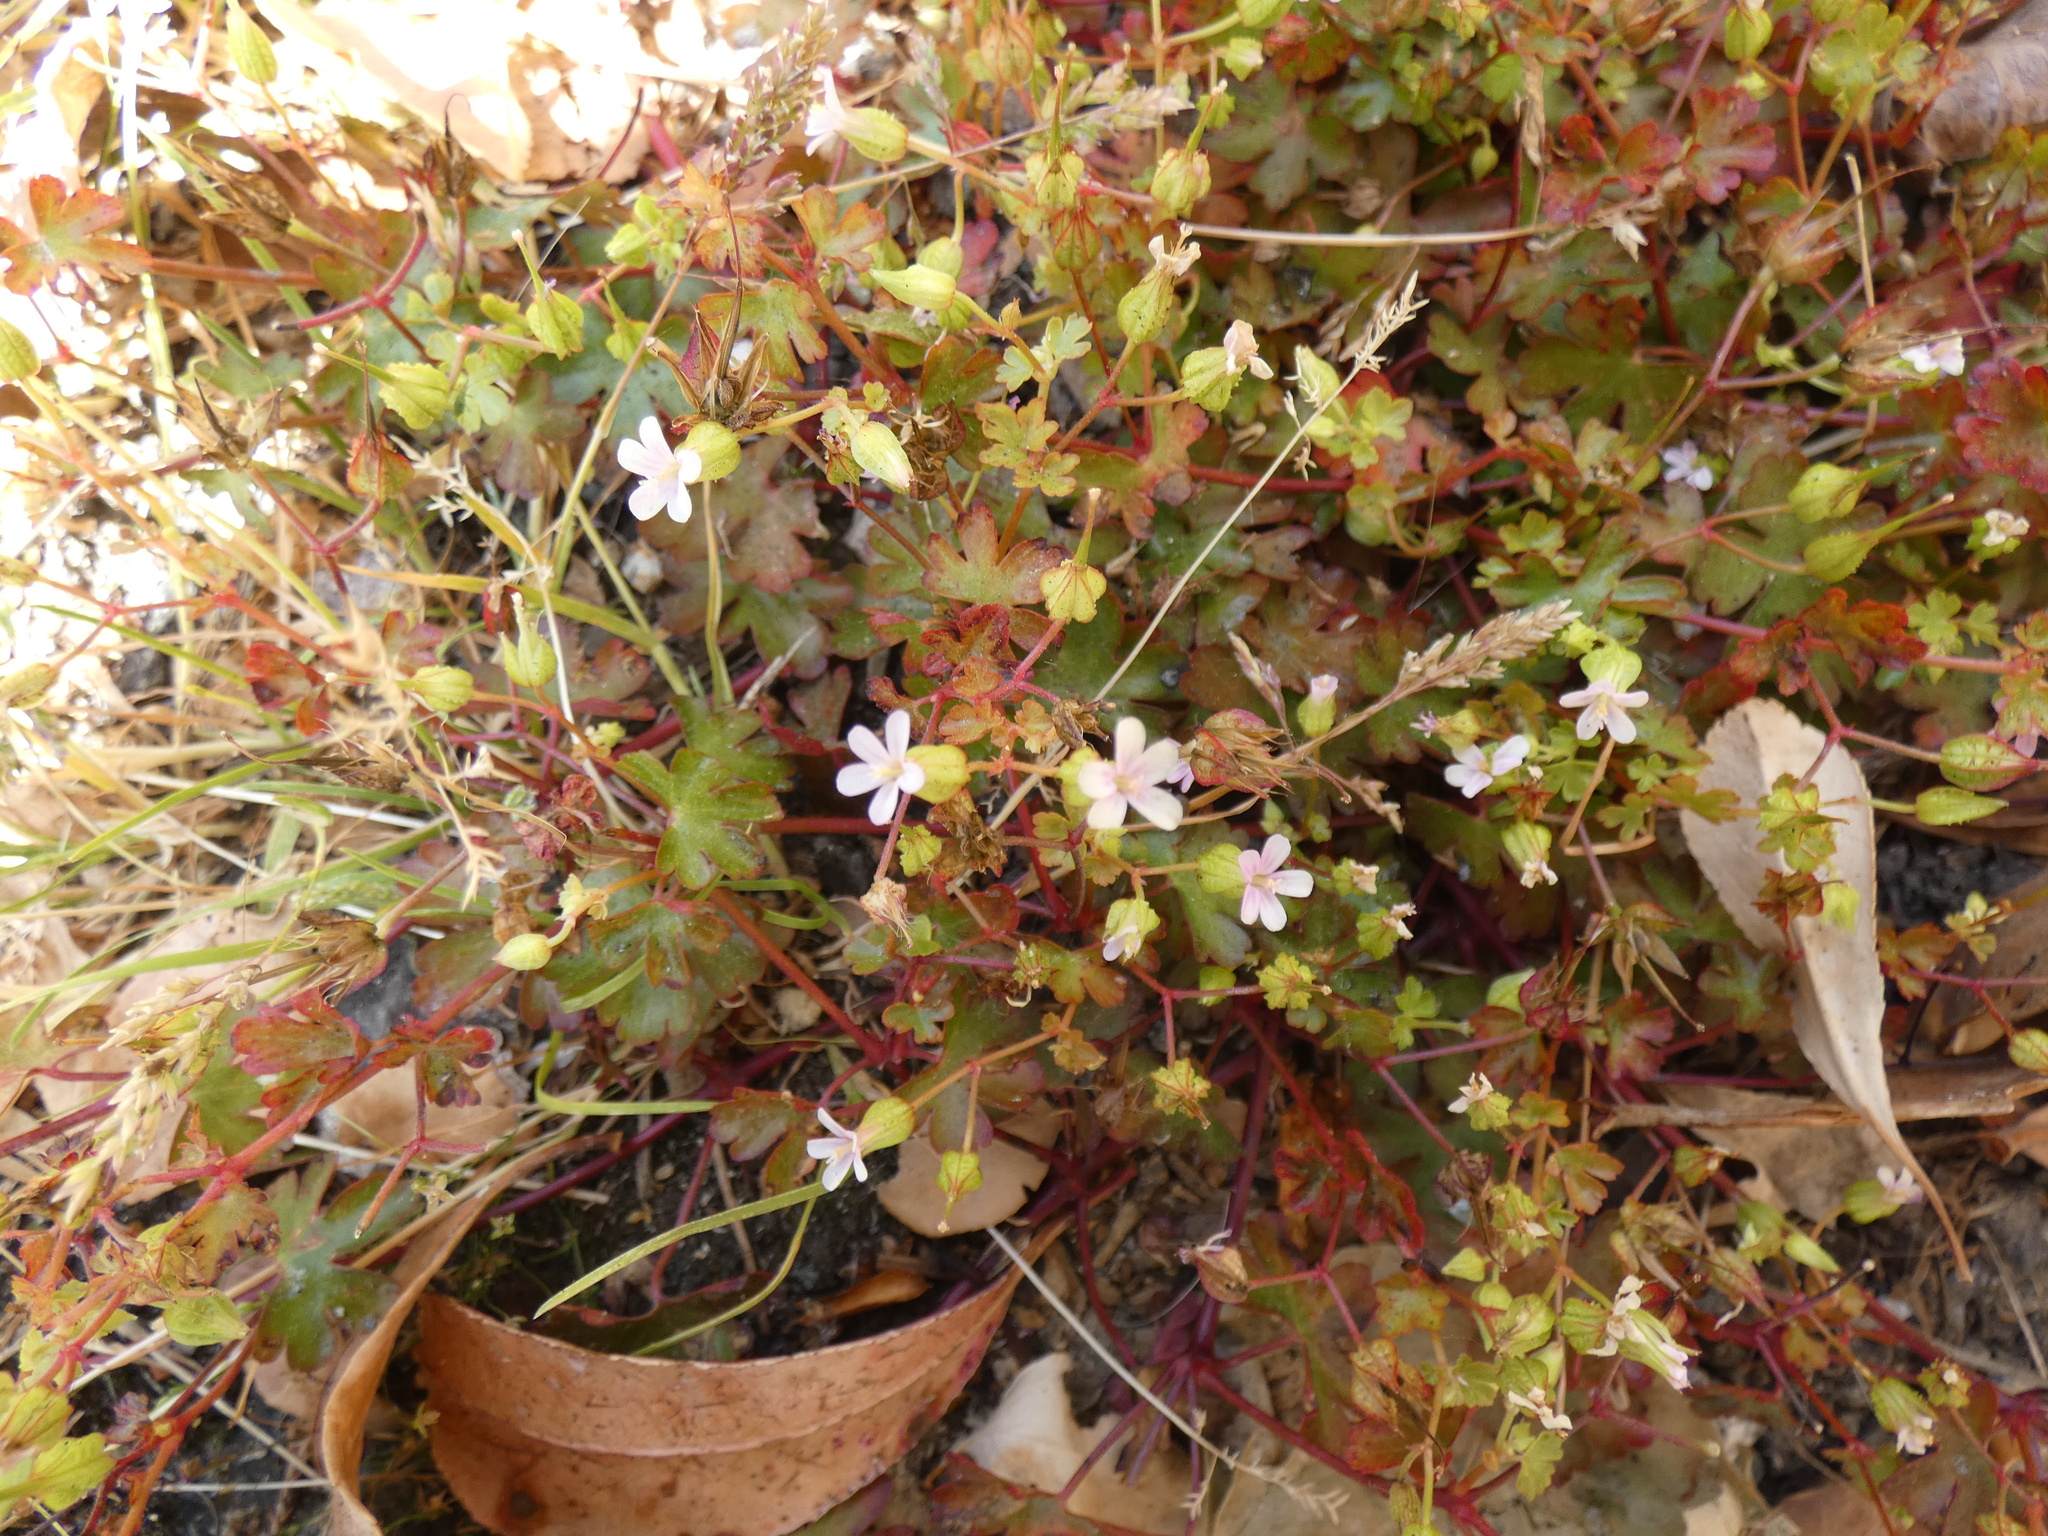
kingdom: Plantae
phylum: Tracheophyta
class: Magnoliopsida
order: Geraniales
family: Geraniaceae
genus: Geranium
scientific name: Geranium lucidum
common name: Shining crane's-bill
